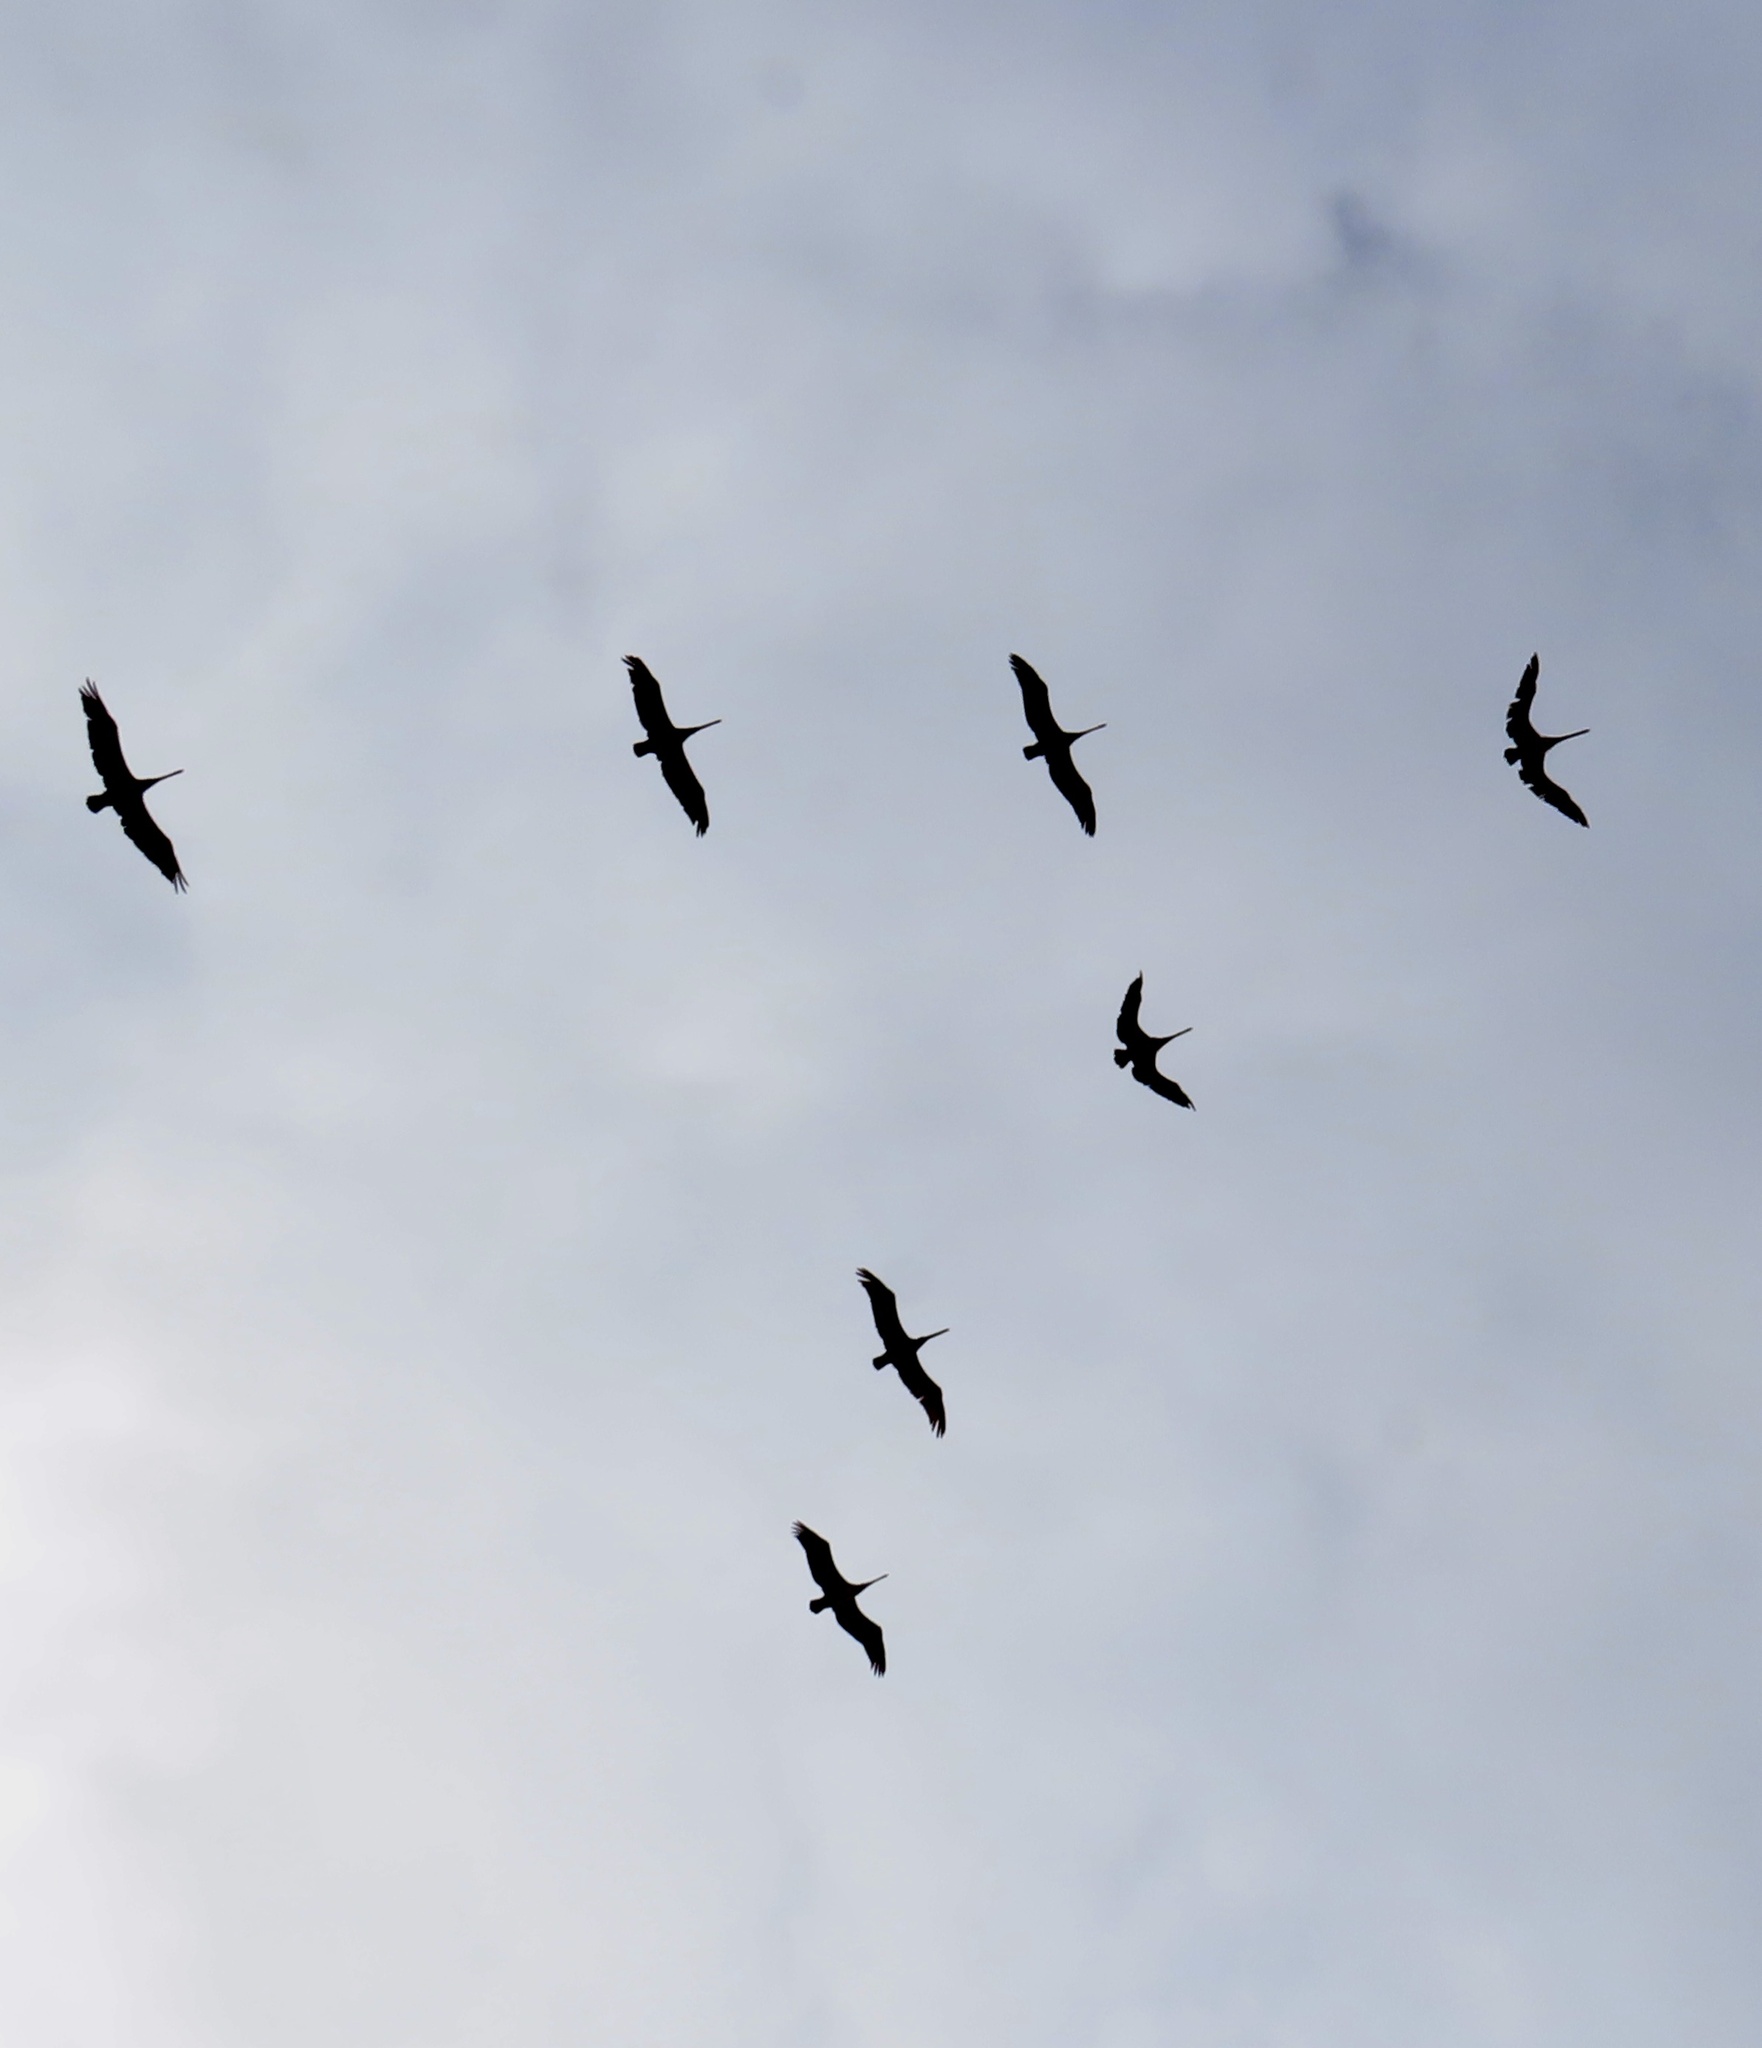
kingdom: Animalia
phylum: Chordata
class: Aves
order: Pelecaniformes
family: Pelecanidae
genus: Pelecanus
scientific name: Pelecanus occidentalis
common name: Brown pelican
